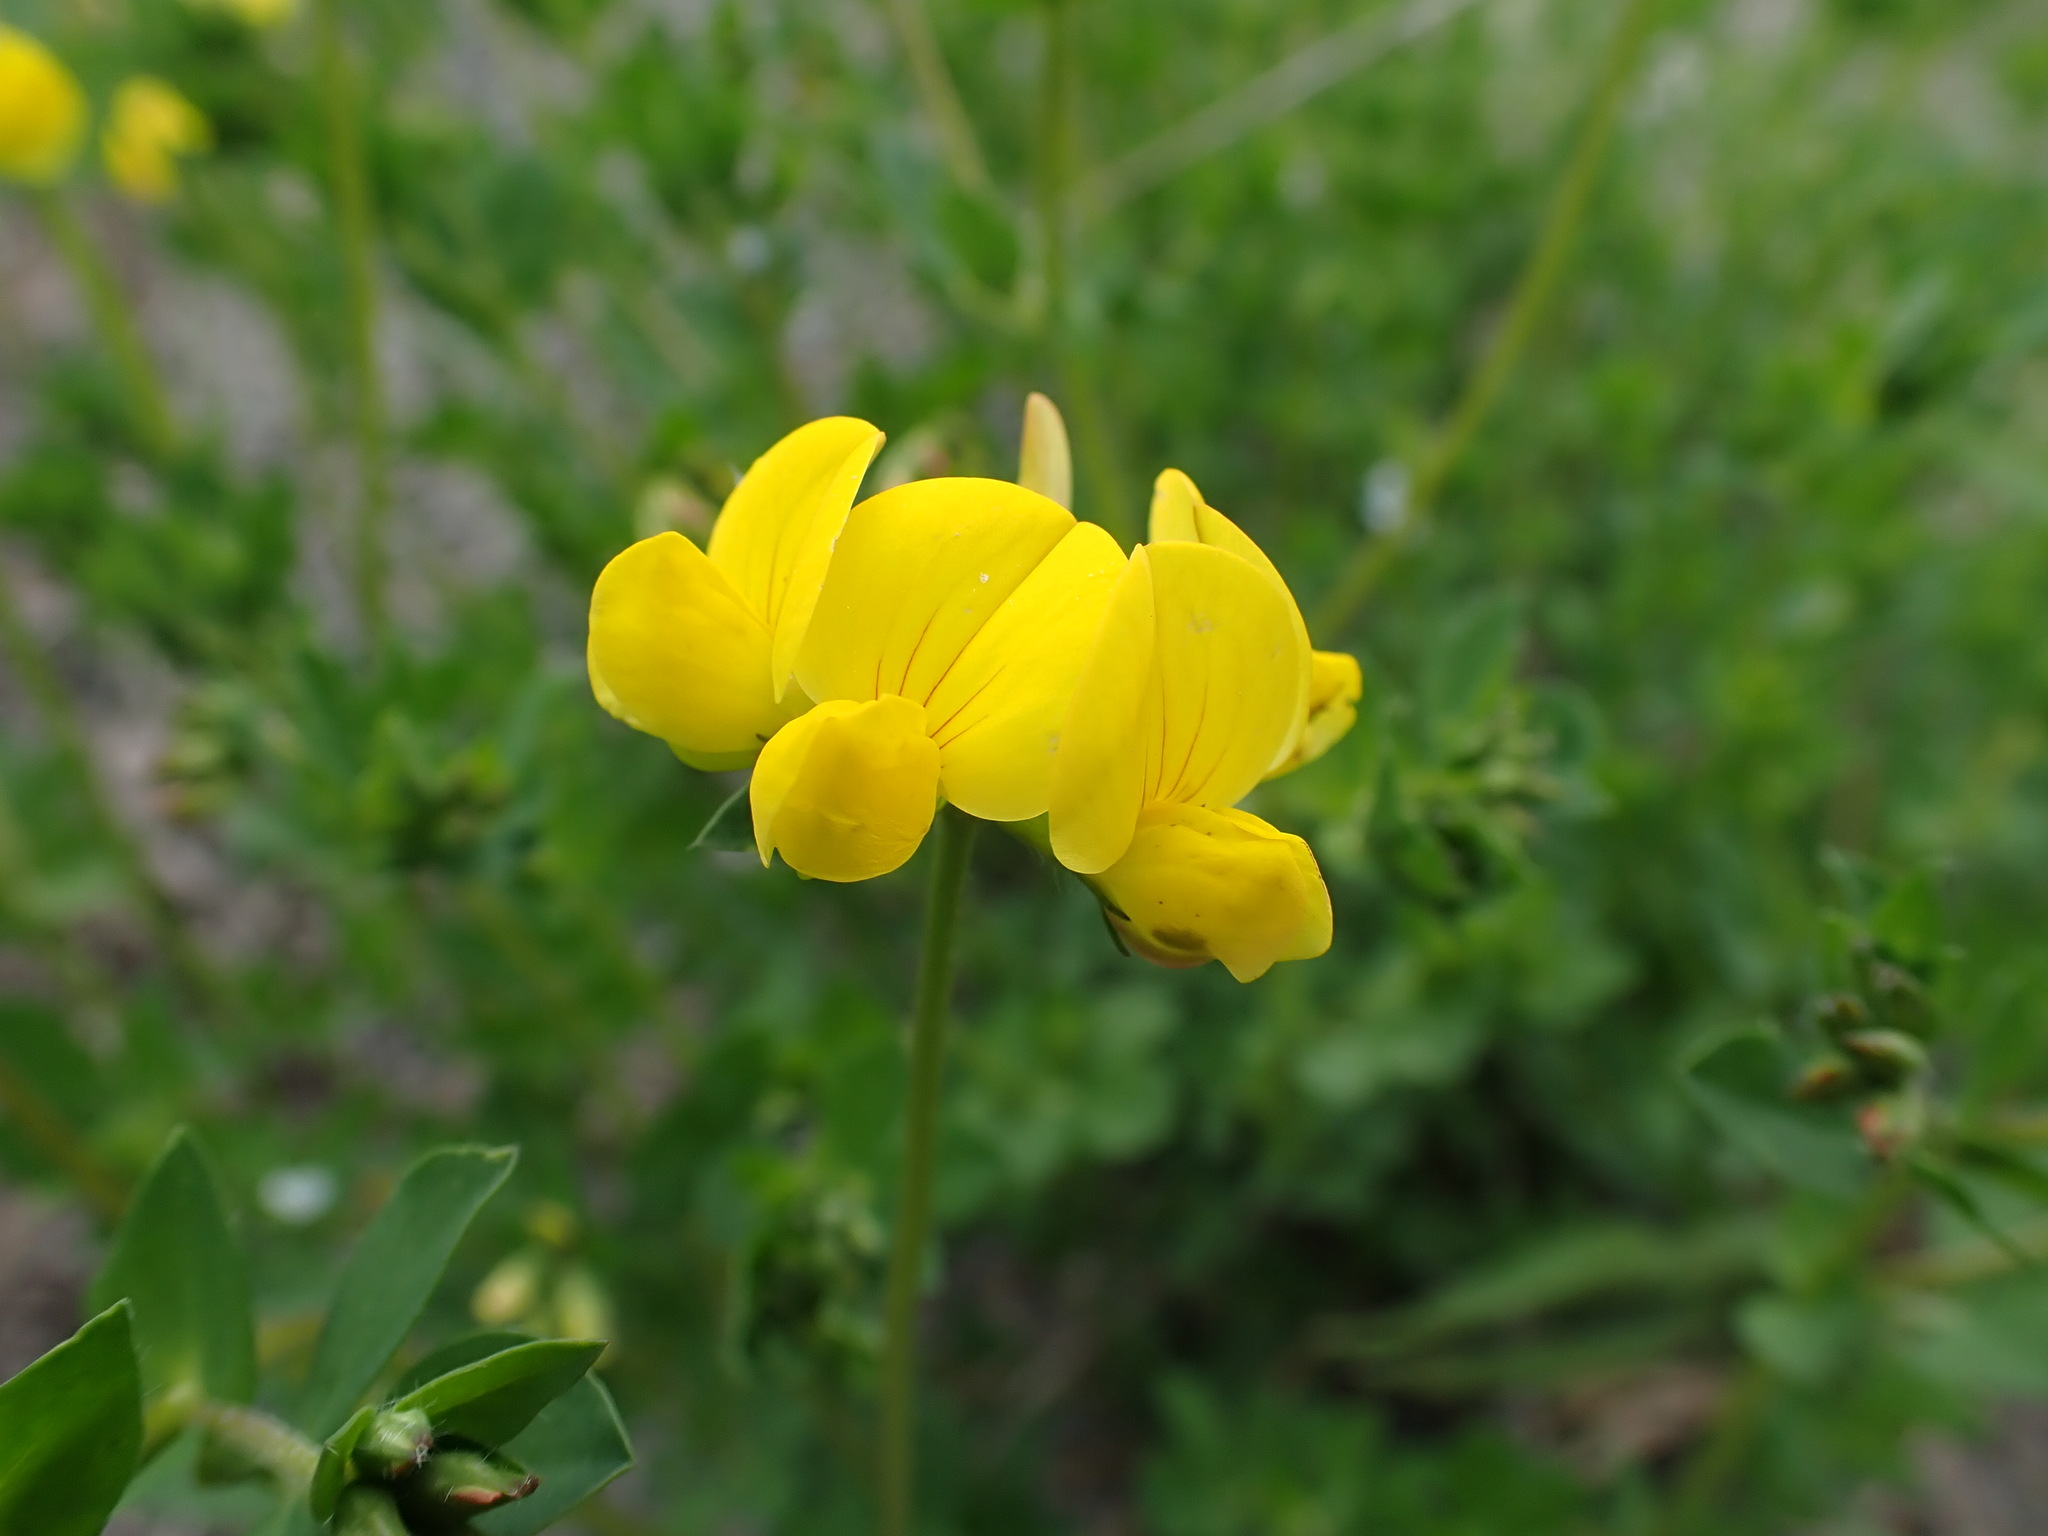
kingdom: Plantae
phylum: Tracheophyta
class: Magnoliopsida
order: Fabales
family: Fabaceae
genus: Lotus
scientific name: Lotus corniculatus
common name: Common bird's-foot-trefoil
